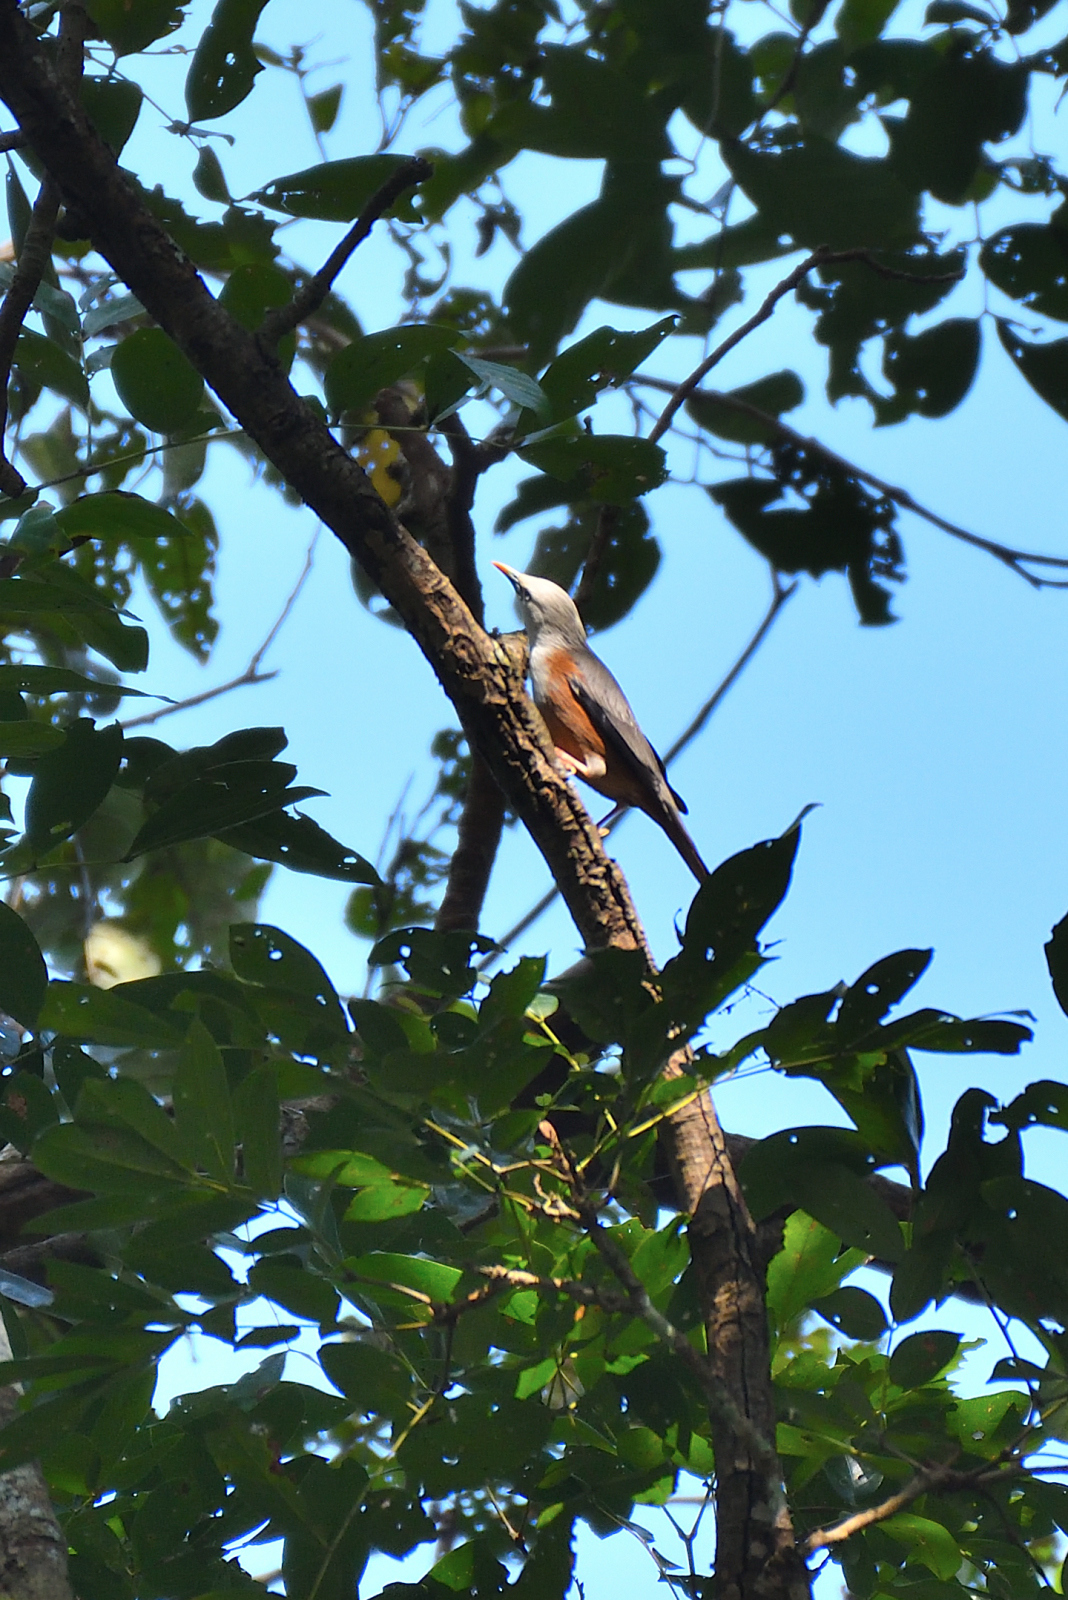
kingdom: Animalia
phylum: Chordata
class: Aves
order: Passeriformes
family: Sturnidae
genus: Sturnia
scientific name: Sturnia blythii
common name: Malabar starling
